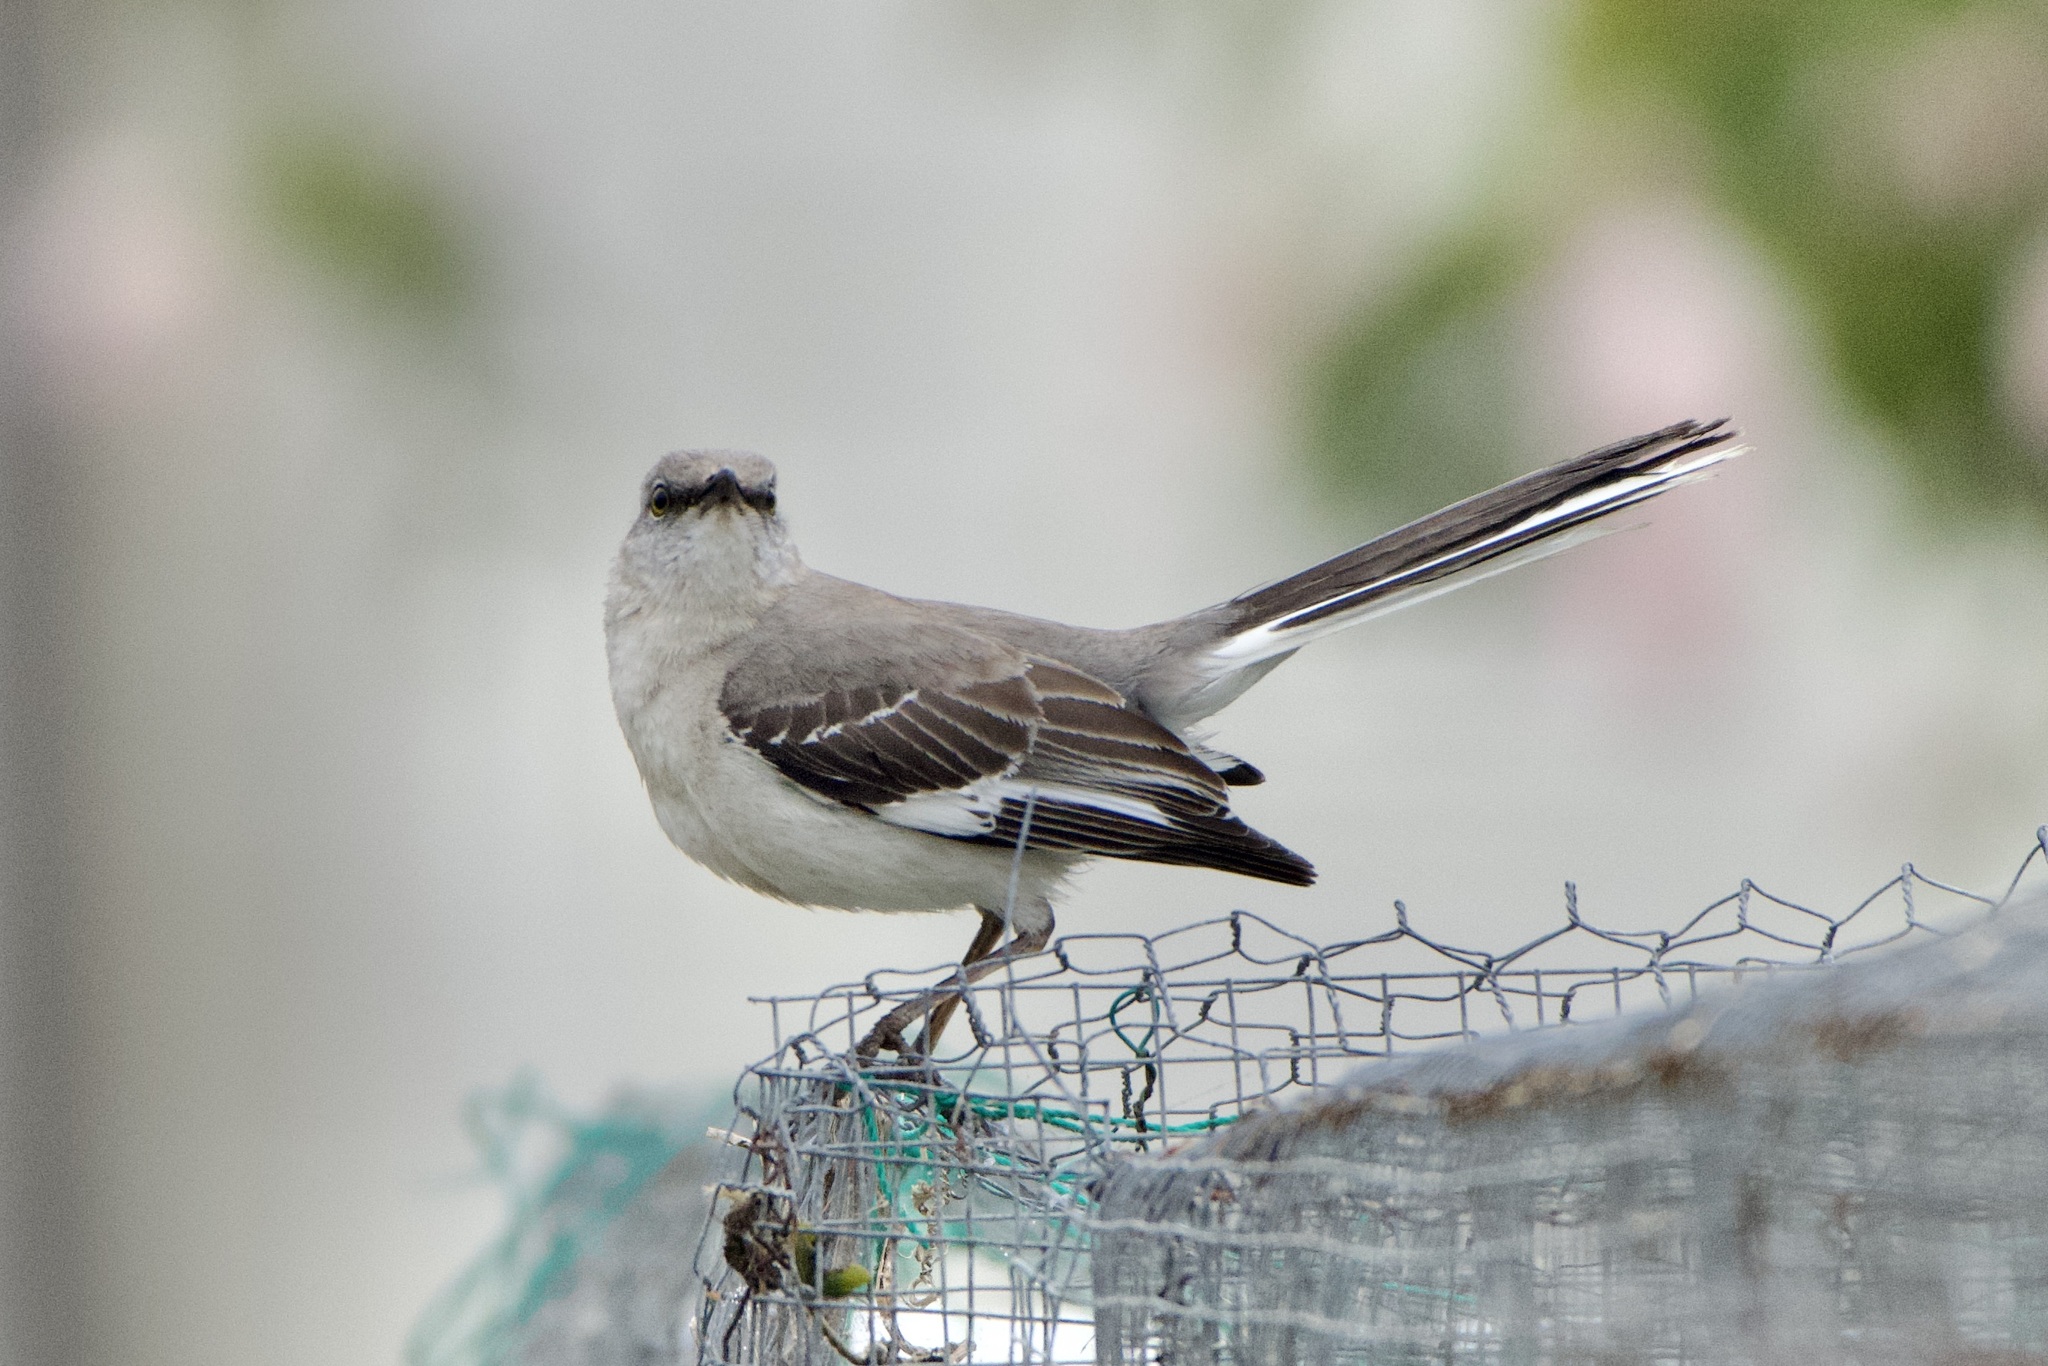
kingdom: Animalia
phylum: Chordata
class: Aves
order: Passeriformes
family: Mimidae
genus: Mimus
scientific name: Mimus polyglottos
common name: Northern mockingbird
